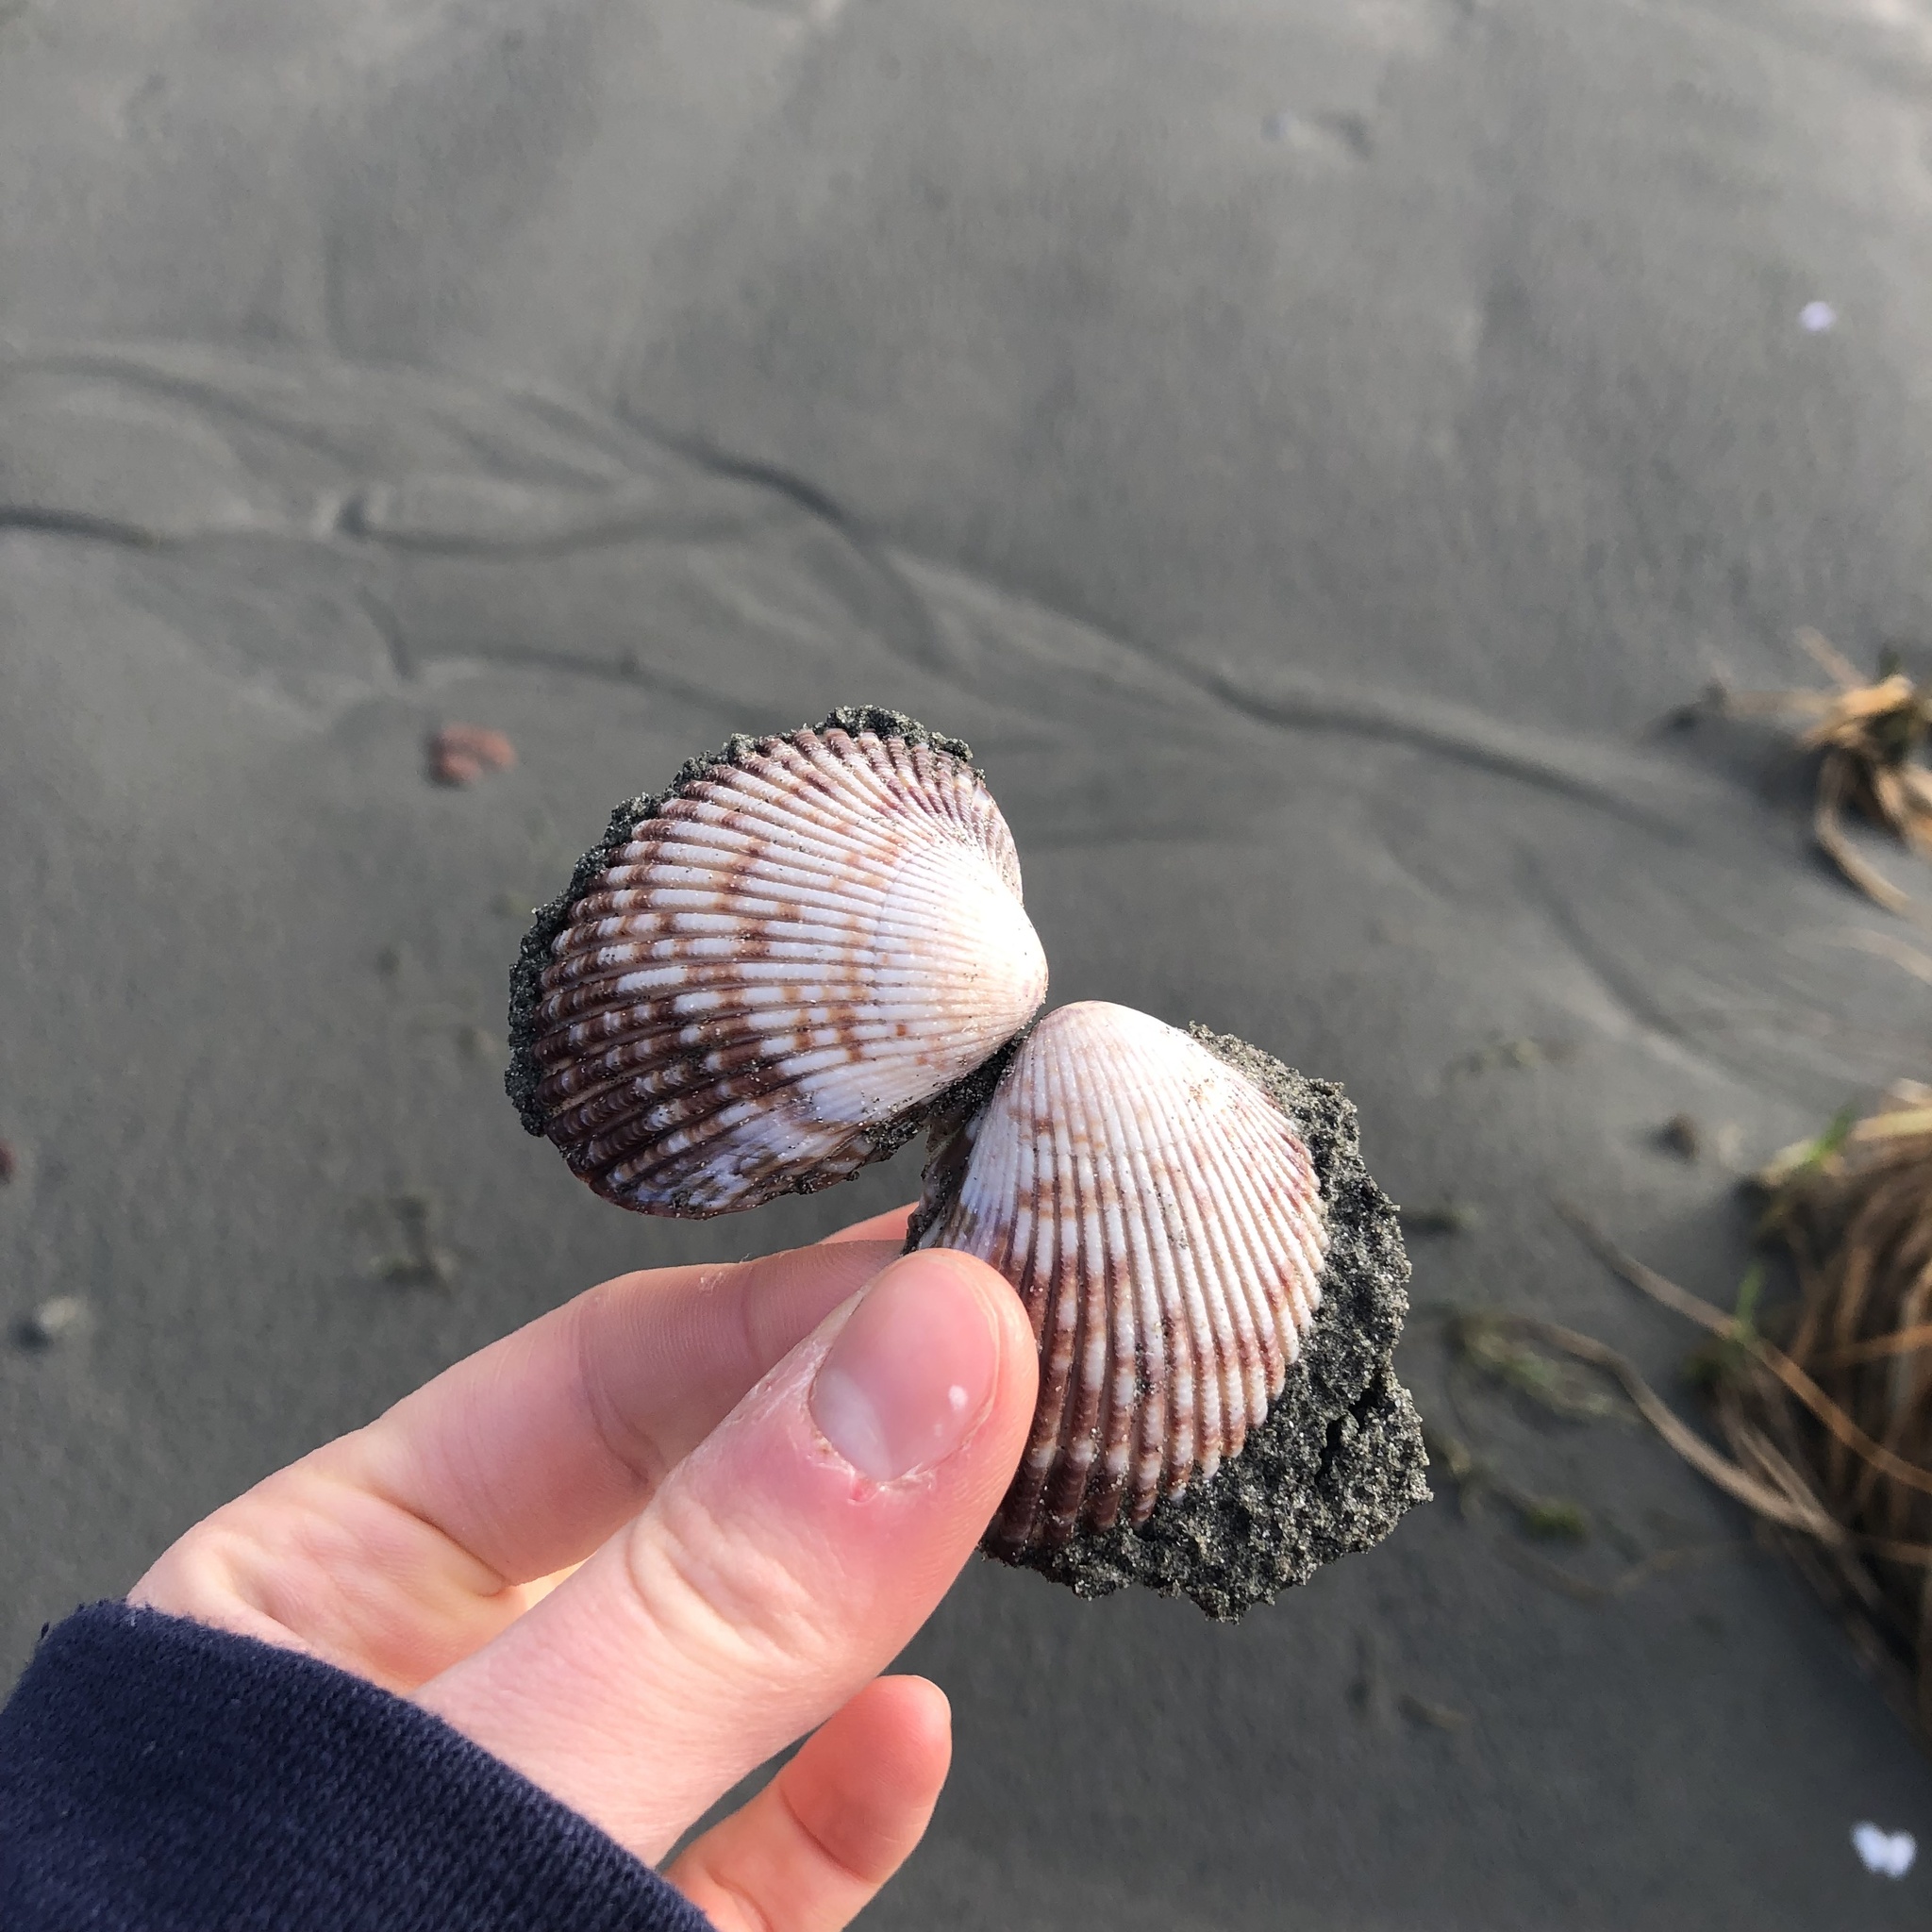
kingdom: Animalia
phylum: Mollusca
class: Bivalvia
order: Cardiida
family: Cardiidae
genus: Clinocardium
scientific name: Clinocardium nuttallii
